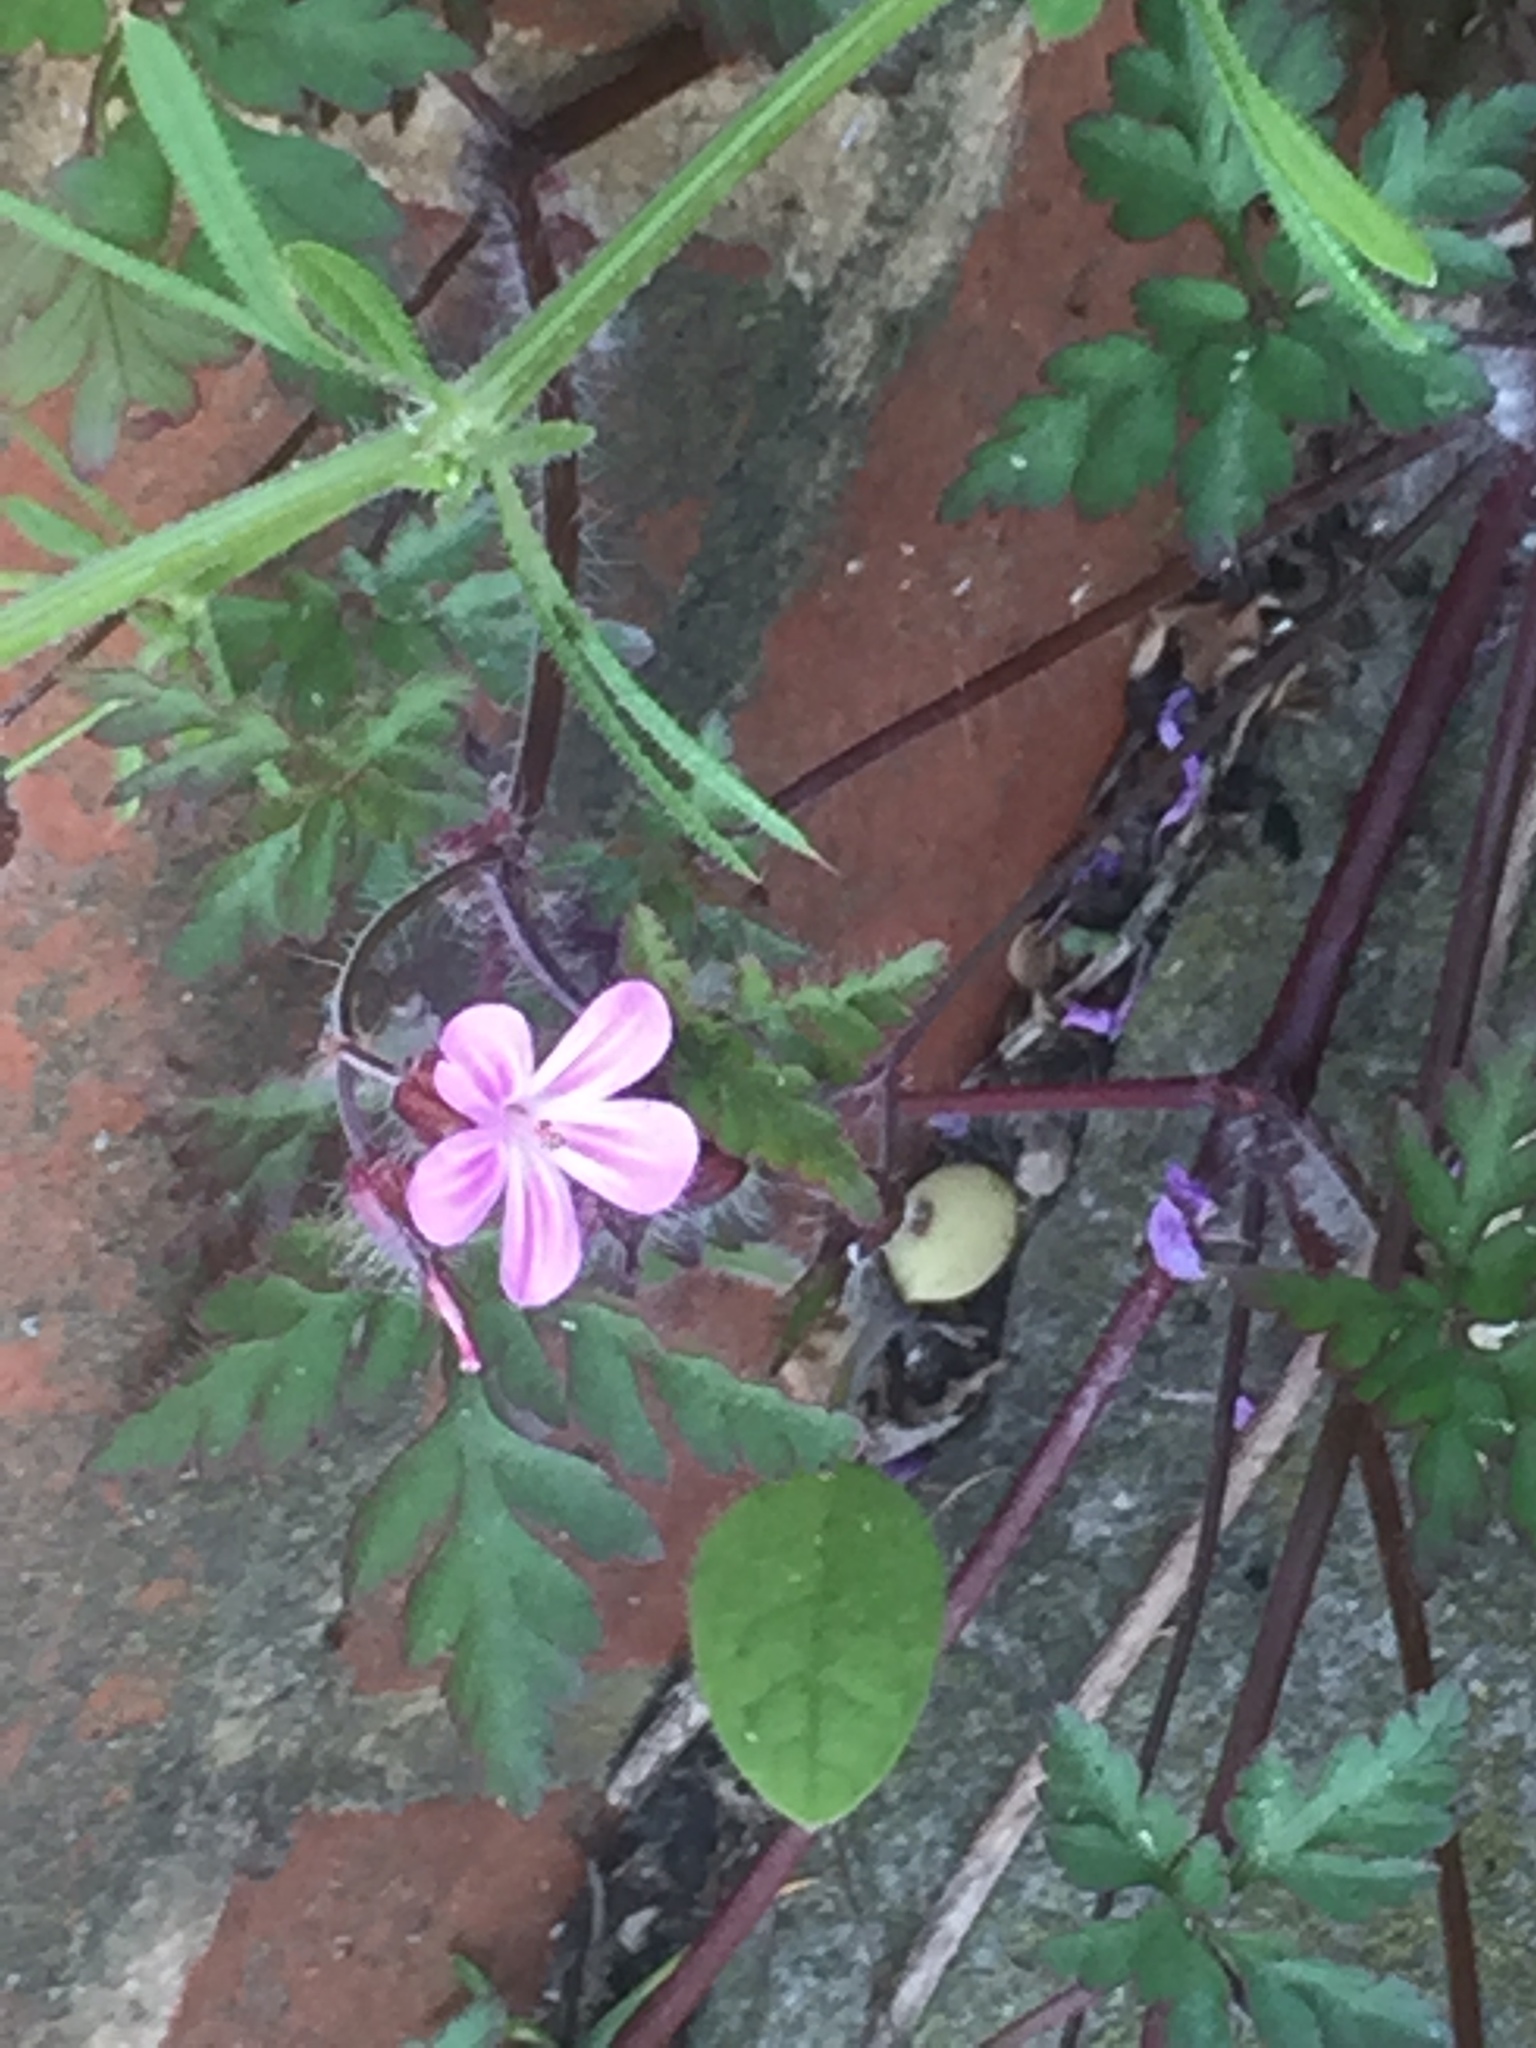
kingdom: Plantae
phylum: Tracheophyta
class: Magnoliopsida
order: Geraniales
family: Geraniaceae
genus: Geranium
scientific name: Geranium robertianum
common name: Herb-robert
